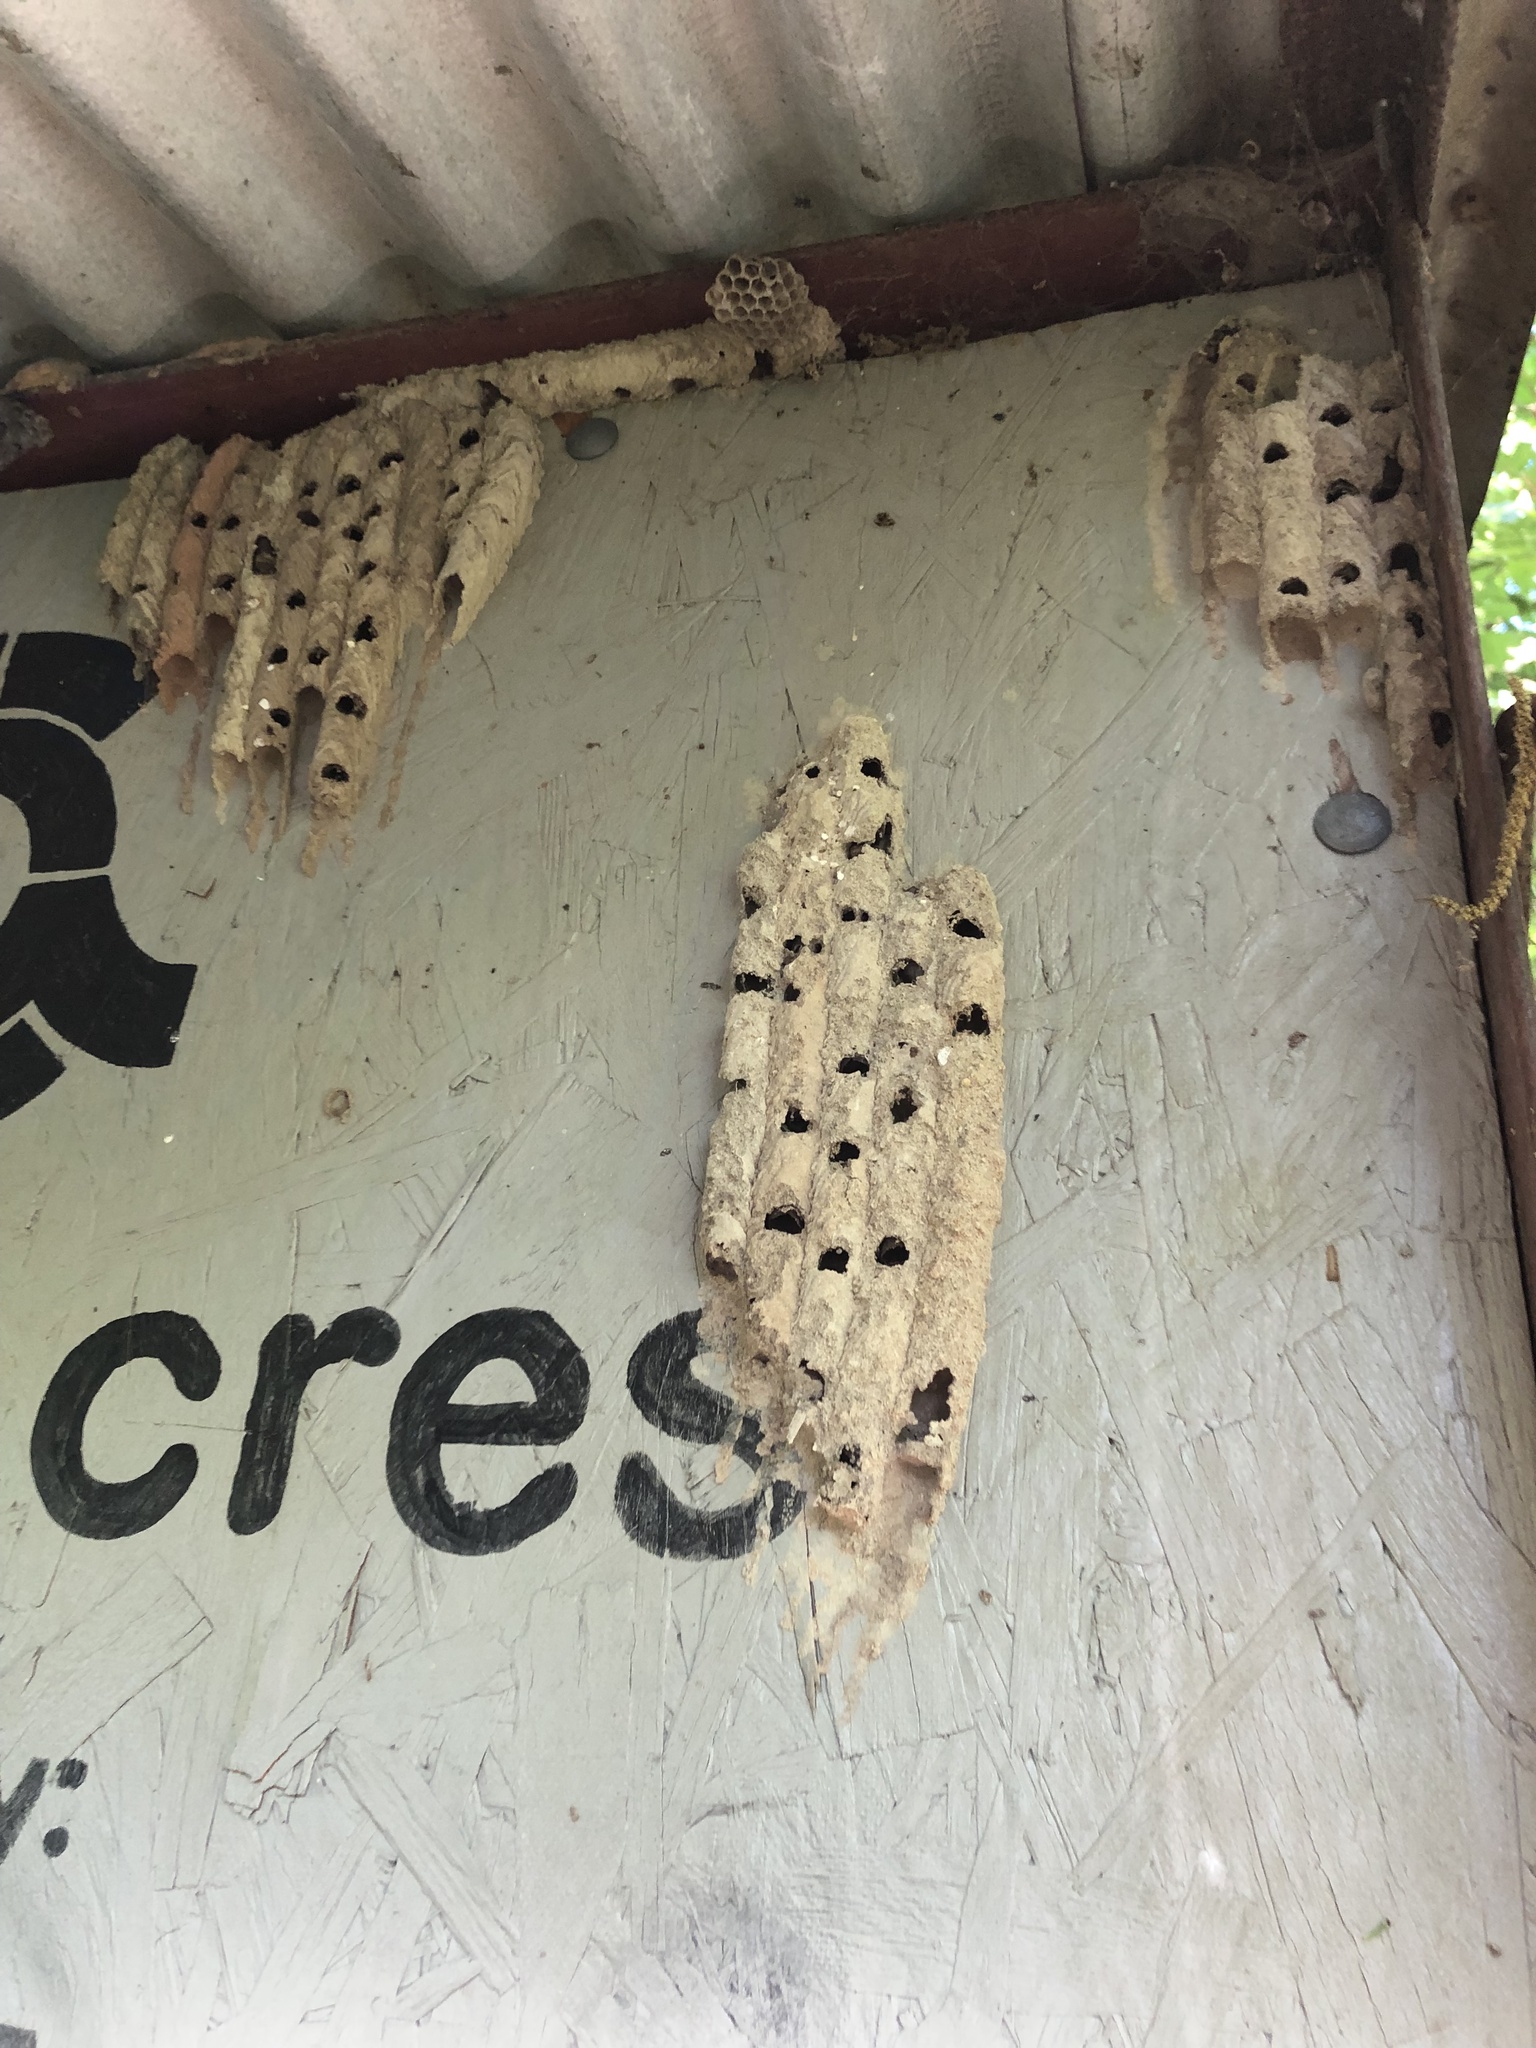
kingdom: Animalia
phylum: Arthropoda
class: Insecta
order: Hymenoptera
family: Crabronidae
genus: Trypoxylon
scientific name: Trypoxylon politum
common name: Organ-pipe mud-dauber wasp
